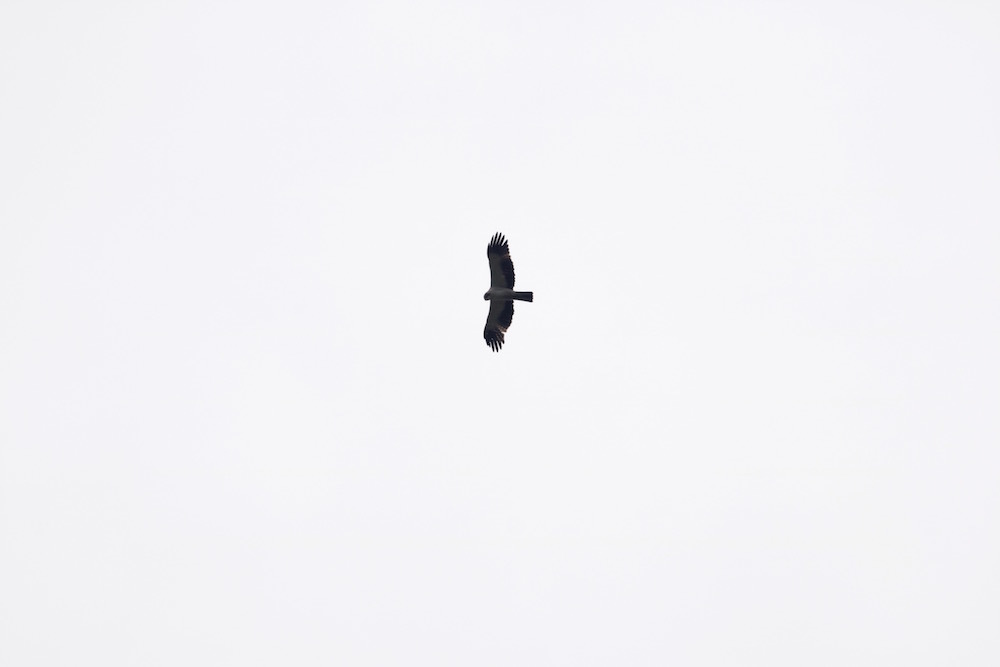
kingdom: Animalia
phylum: Chordata
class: Aves
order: Accipitriformes
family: Accipitridae
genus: Hieraaetus
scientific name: Hieraaetus pennatus
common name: Booted eagle
